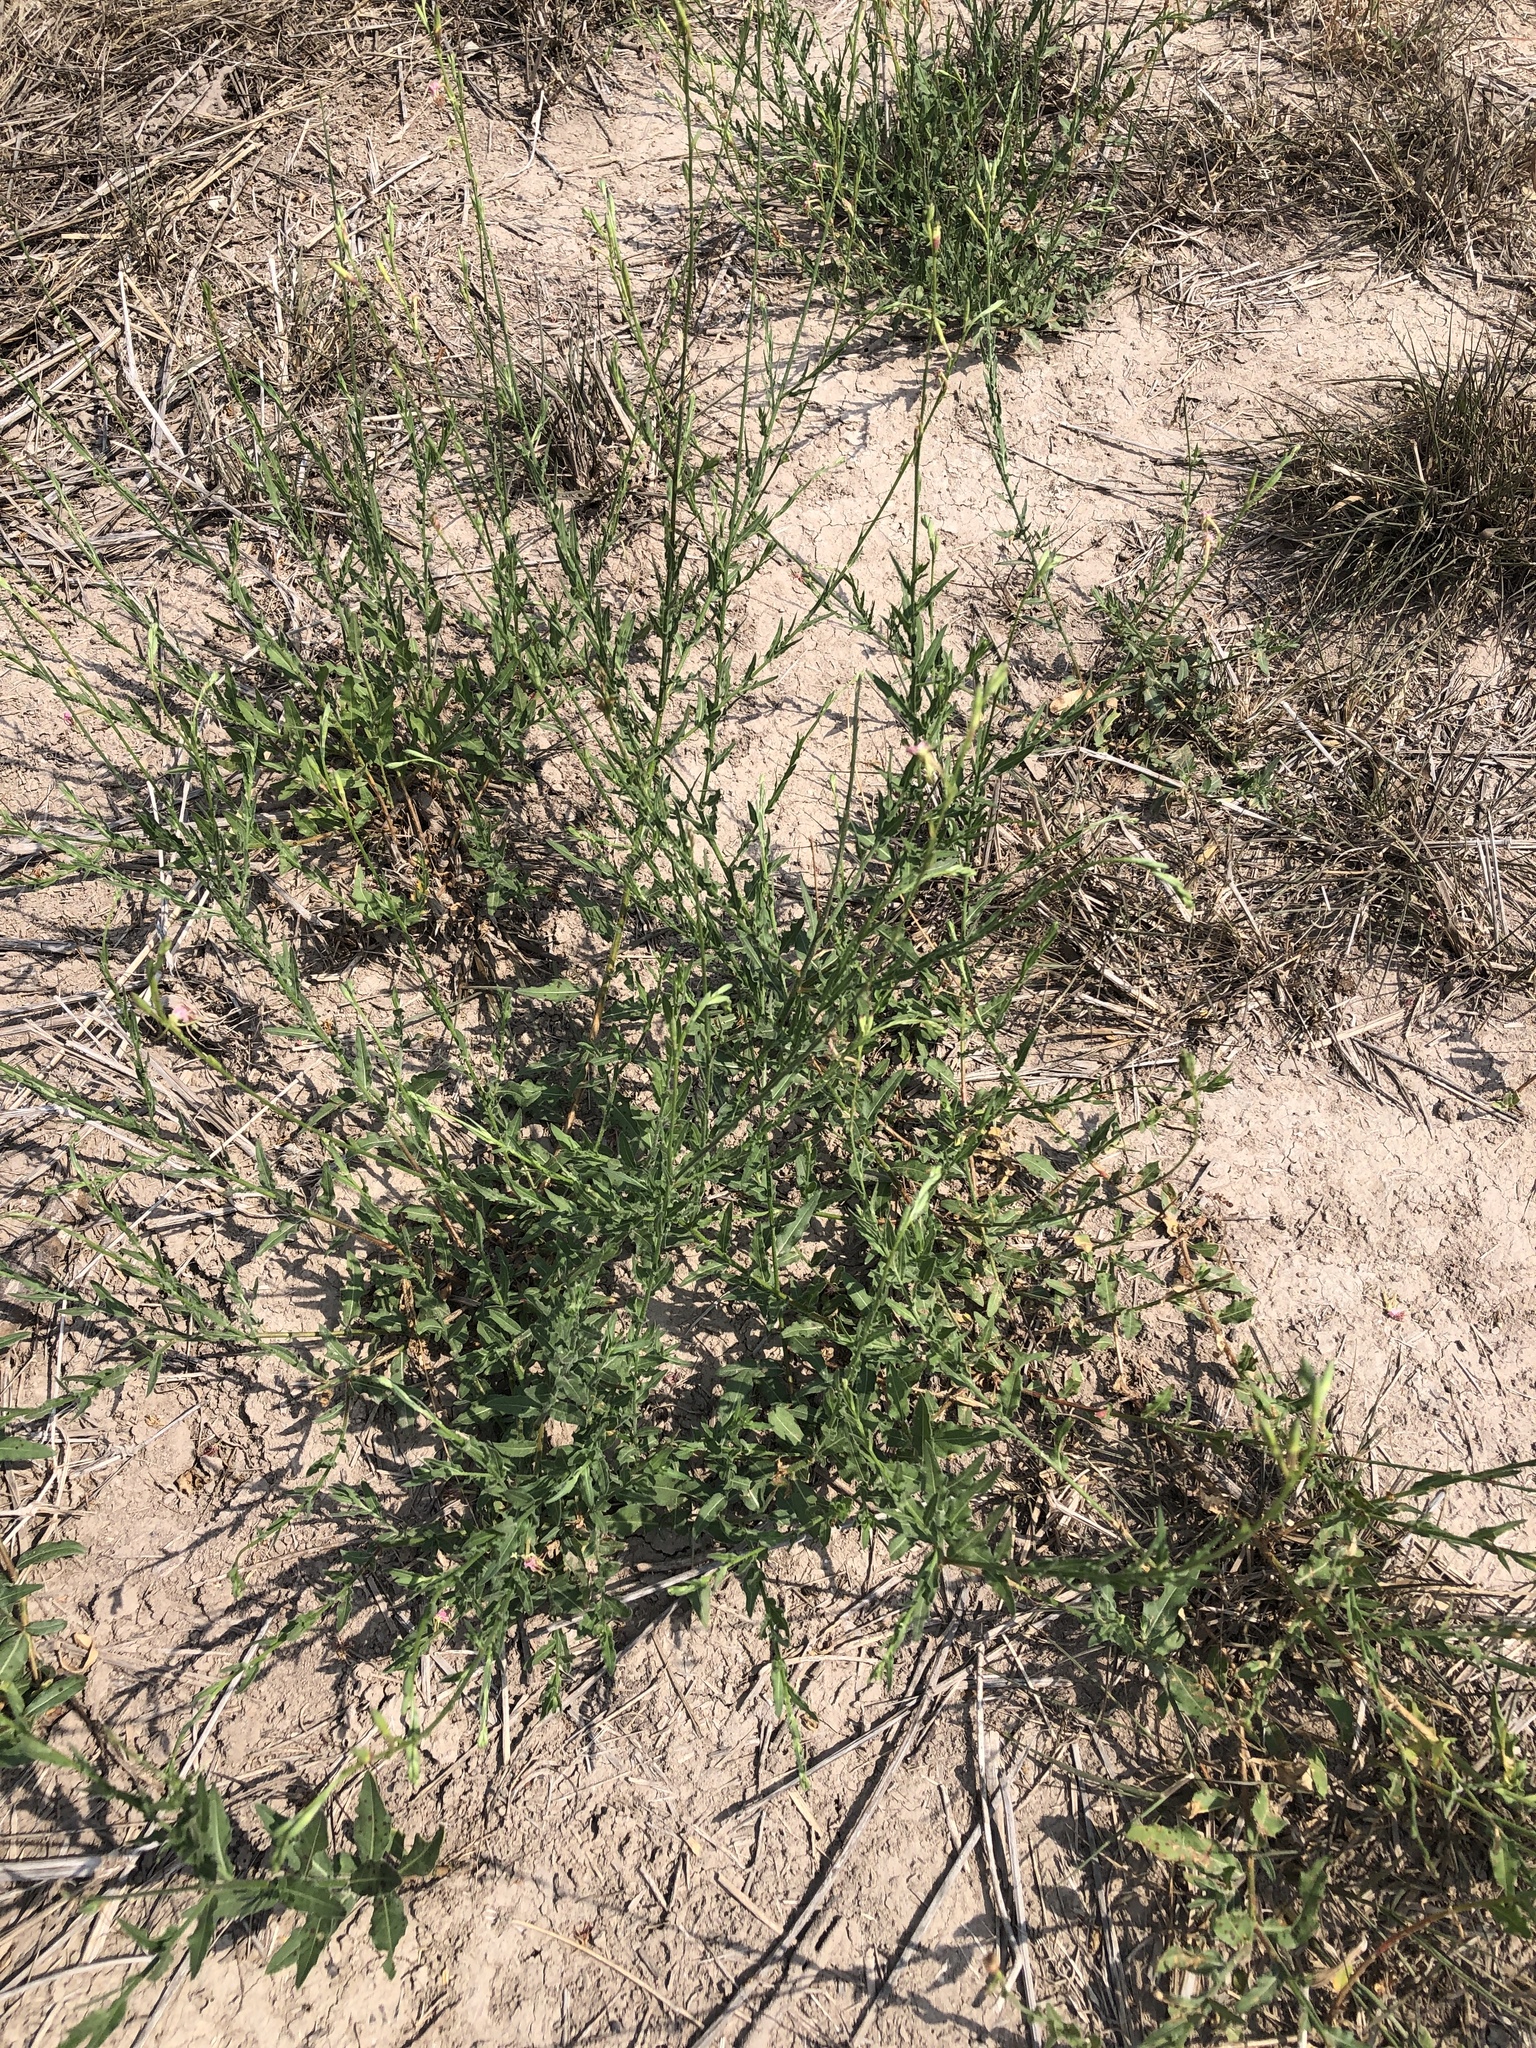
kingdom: Plantae
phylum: Tracheophyta
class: Magnoliopsida
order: Myrtales
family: Onagraceae
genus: Oenothera
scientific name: Oenothera hispida
